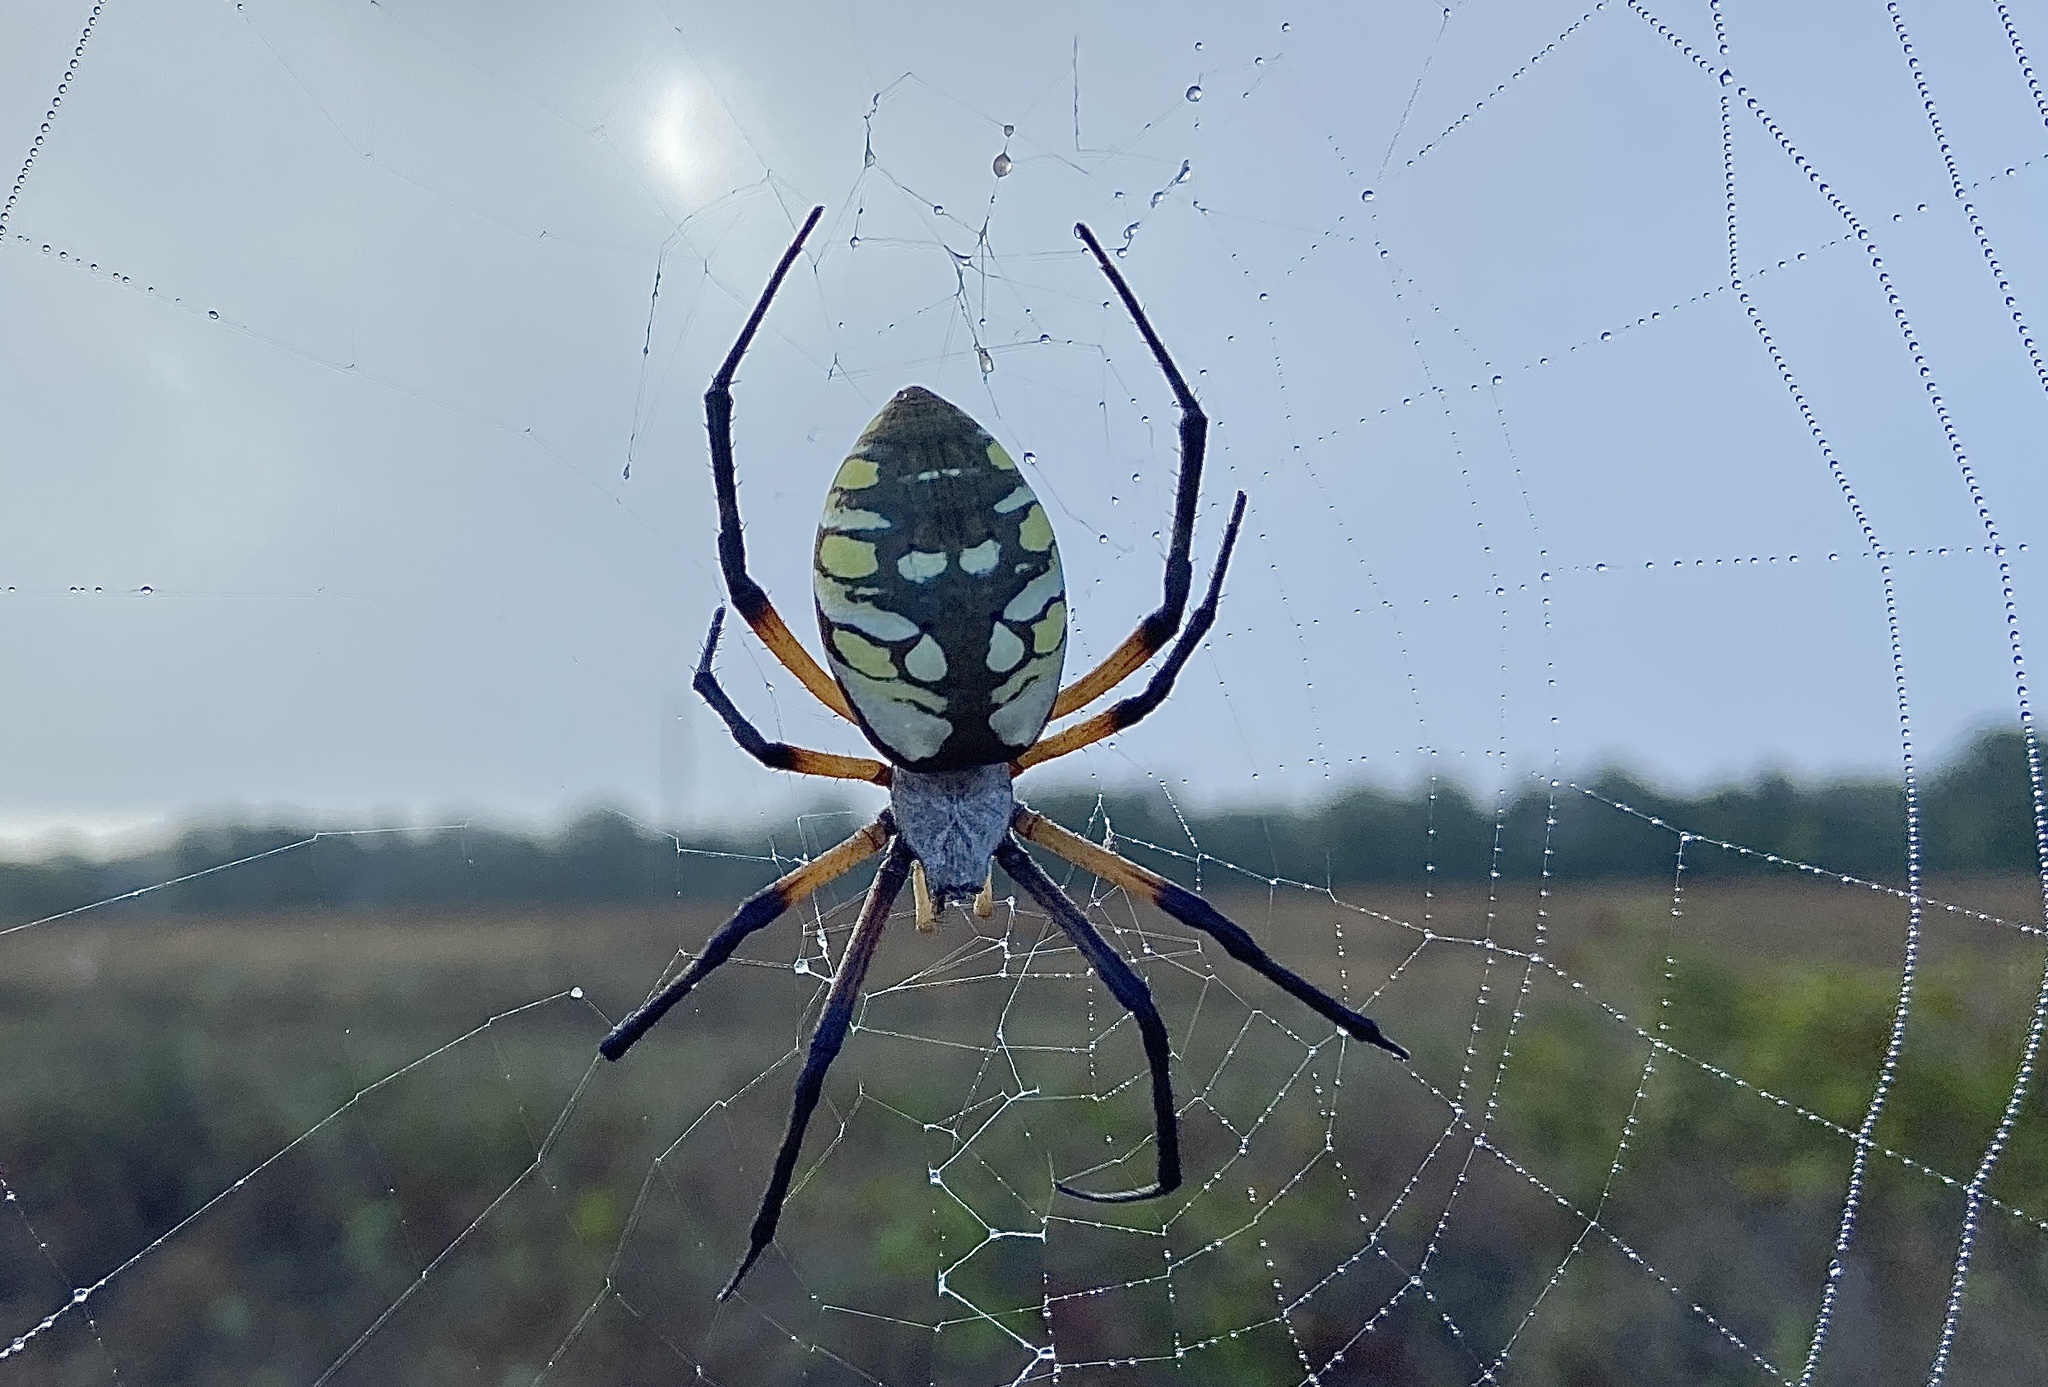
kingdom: Animalia
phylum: Arthropoda
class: Arachnida
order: Araneae
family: Araneidae
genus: Argiope
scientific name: Argiope aurantia
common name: Orb weavers
